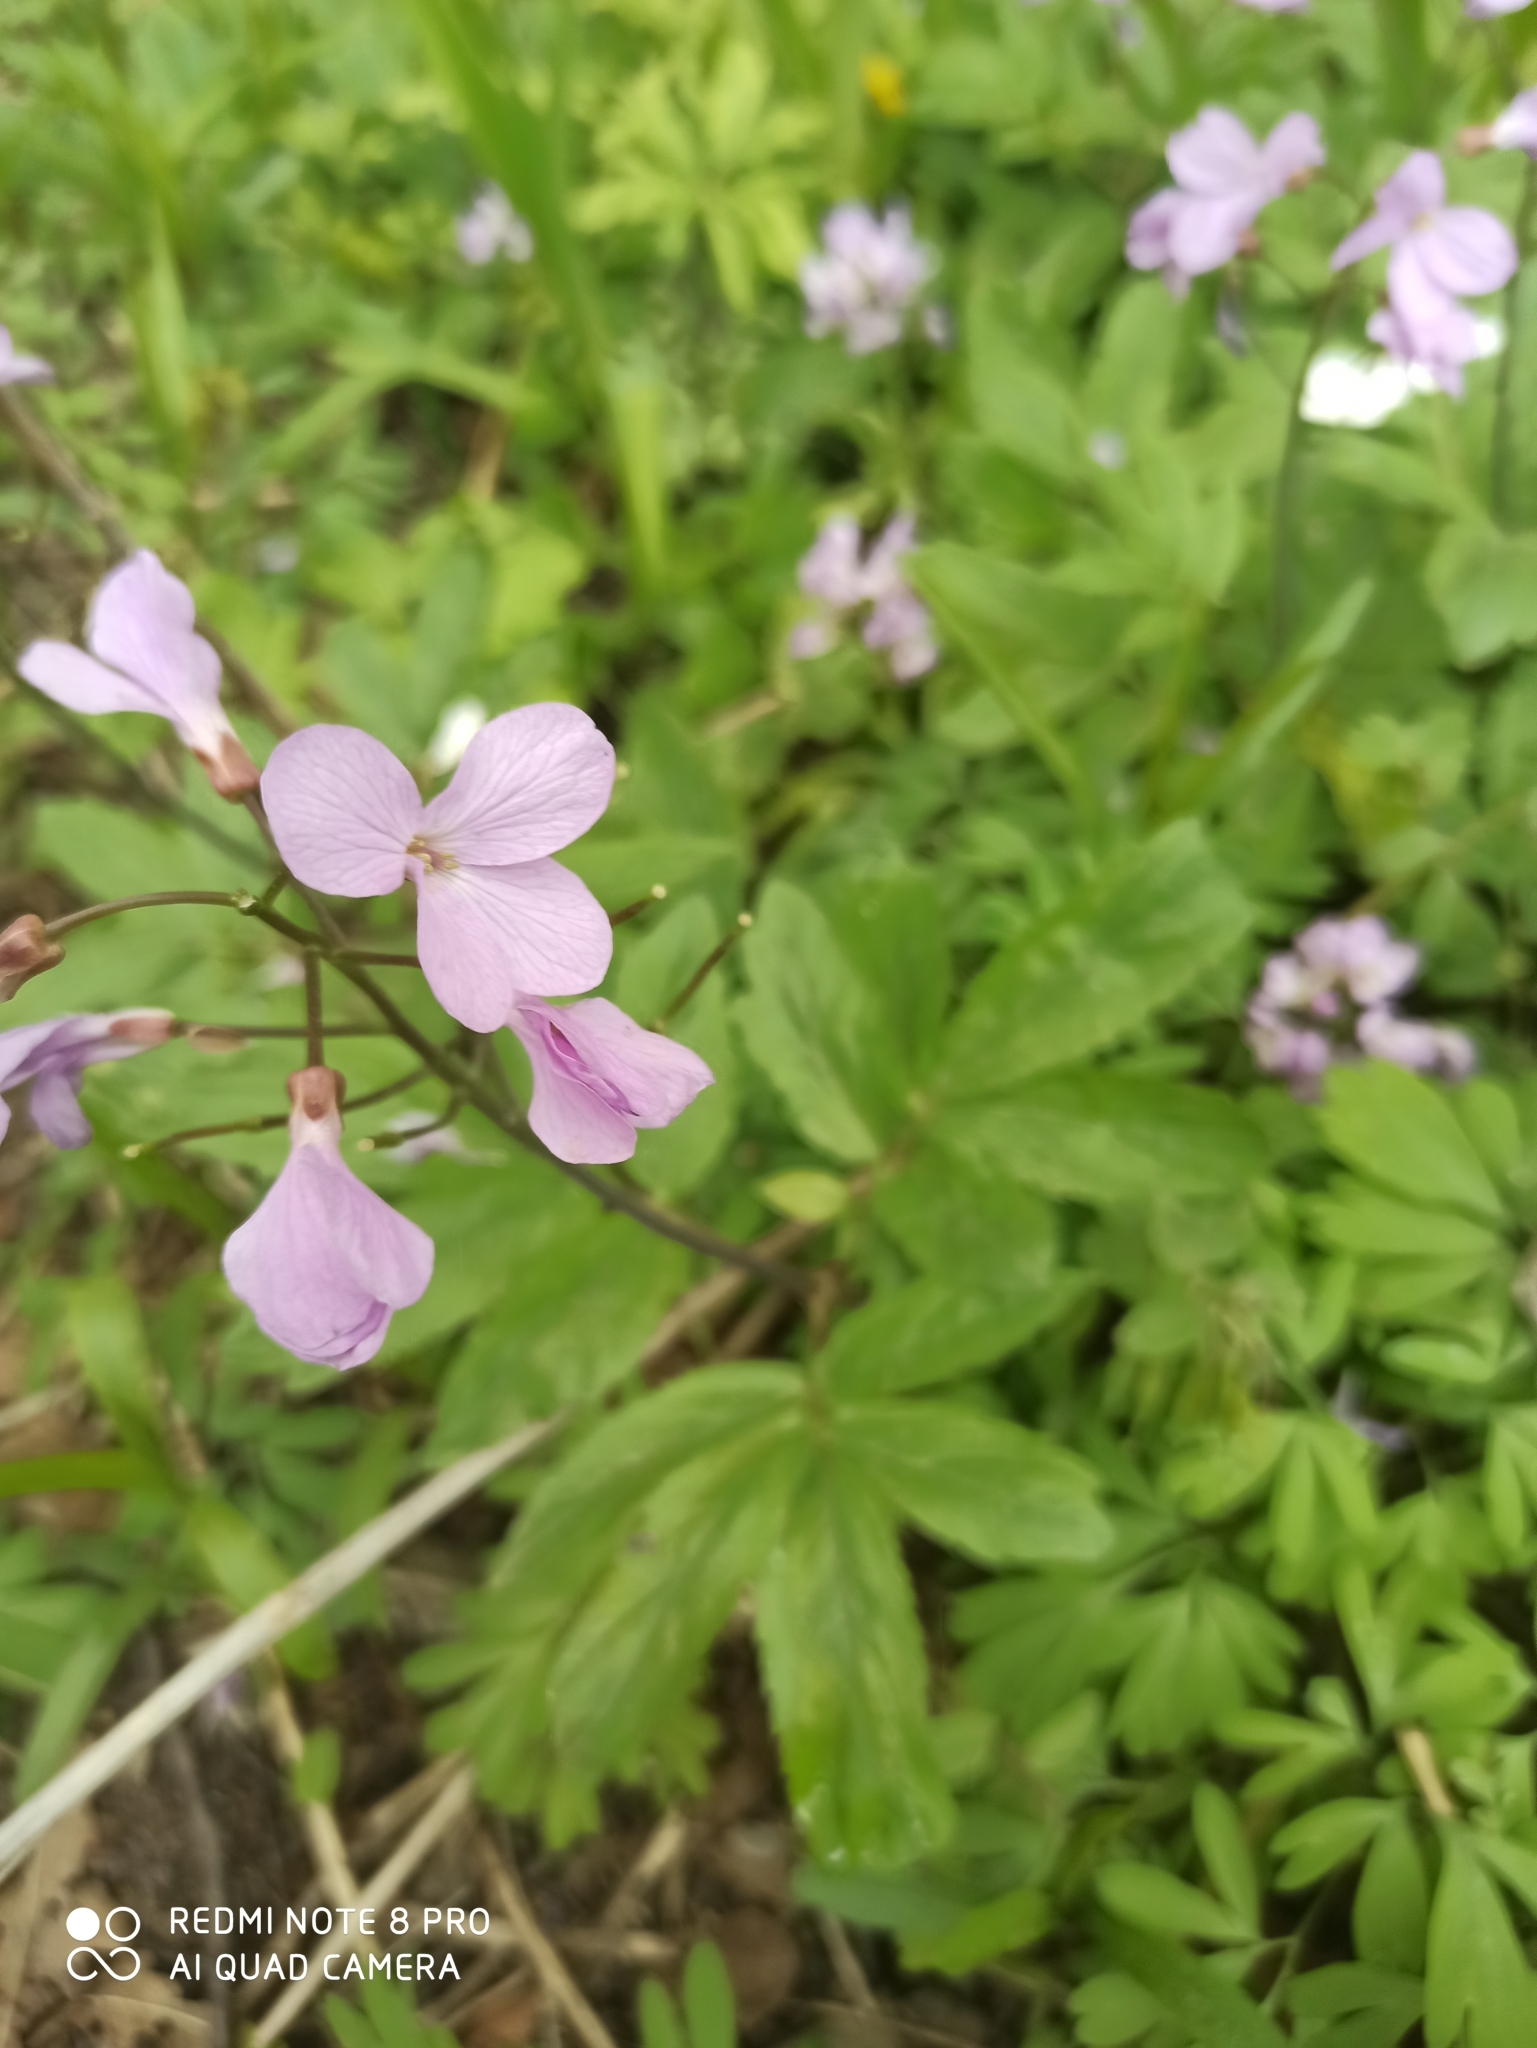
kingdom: Plantae
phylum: Tracheophyta
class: Magnoliopsida
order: Brassicales
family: Brassicaceae
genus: Cardamine
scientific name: Cardamine quinquefolia
